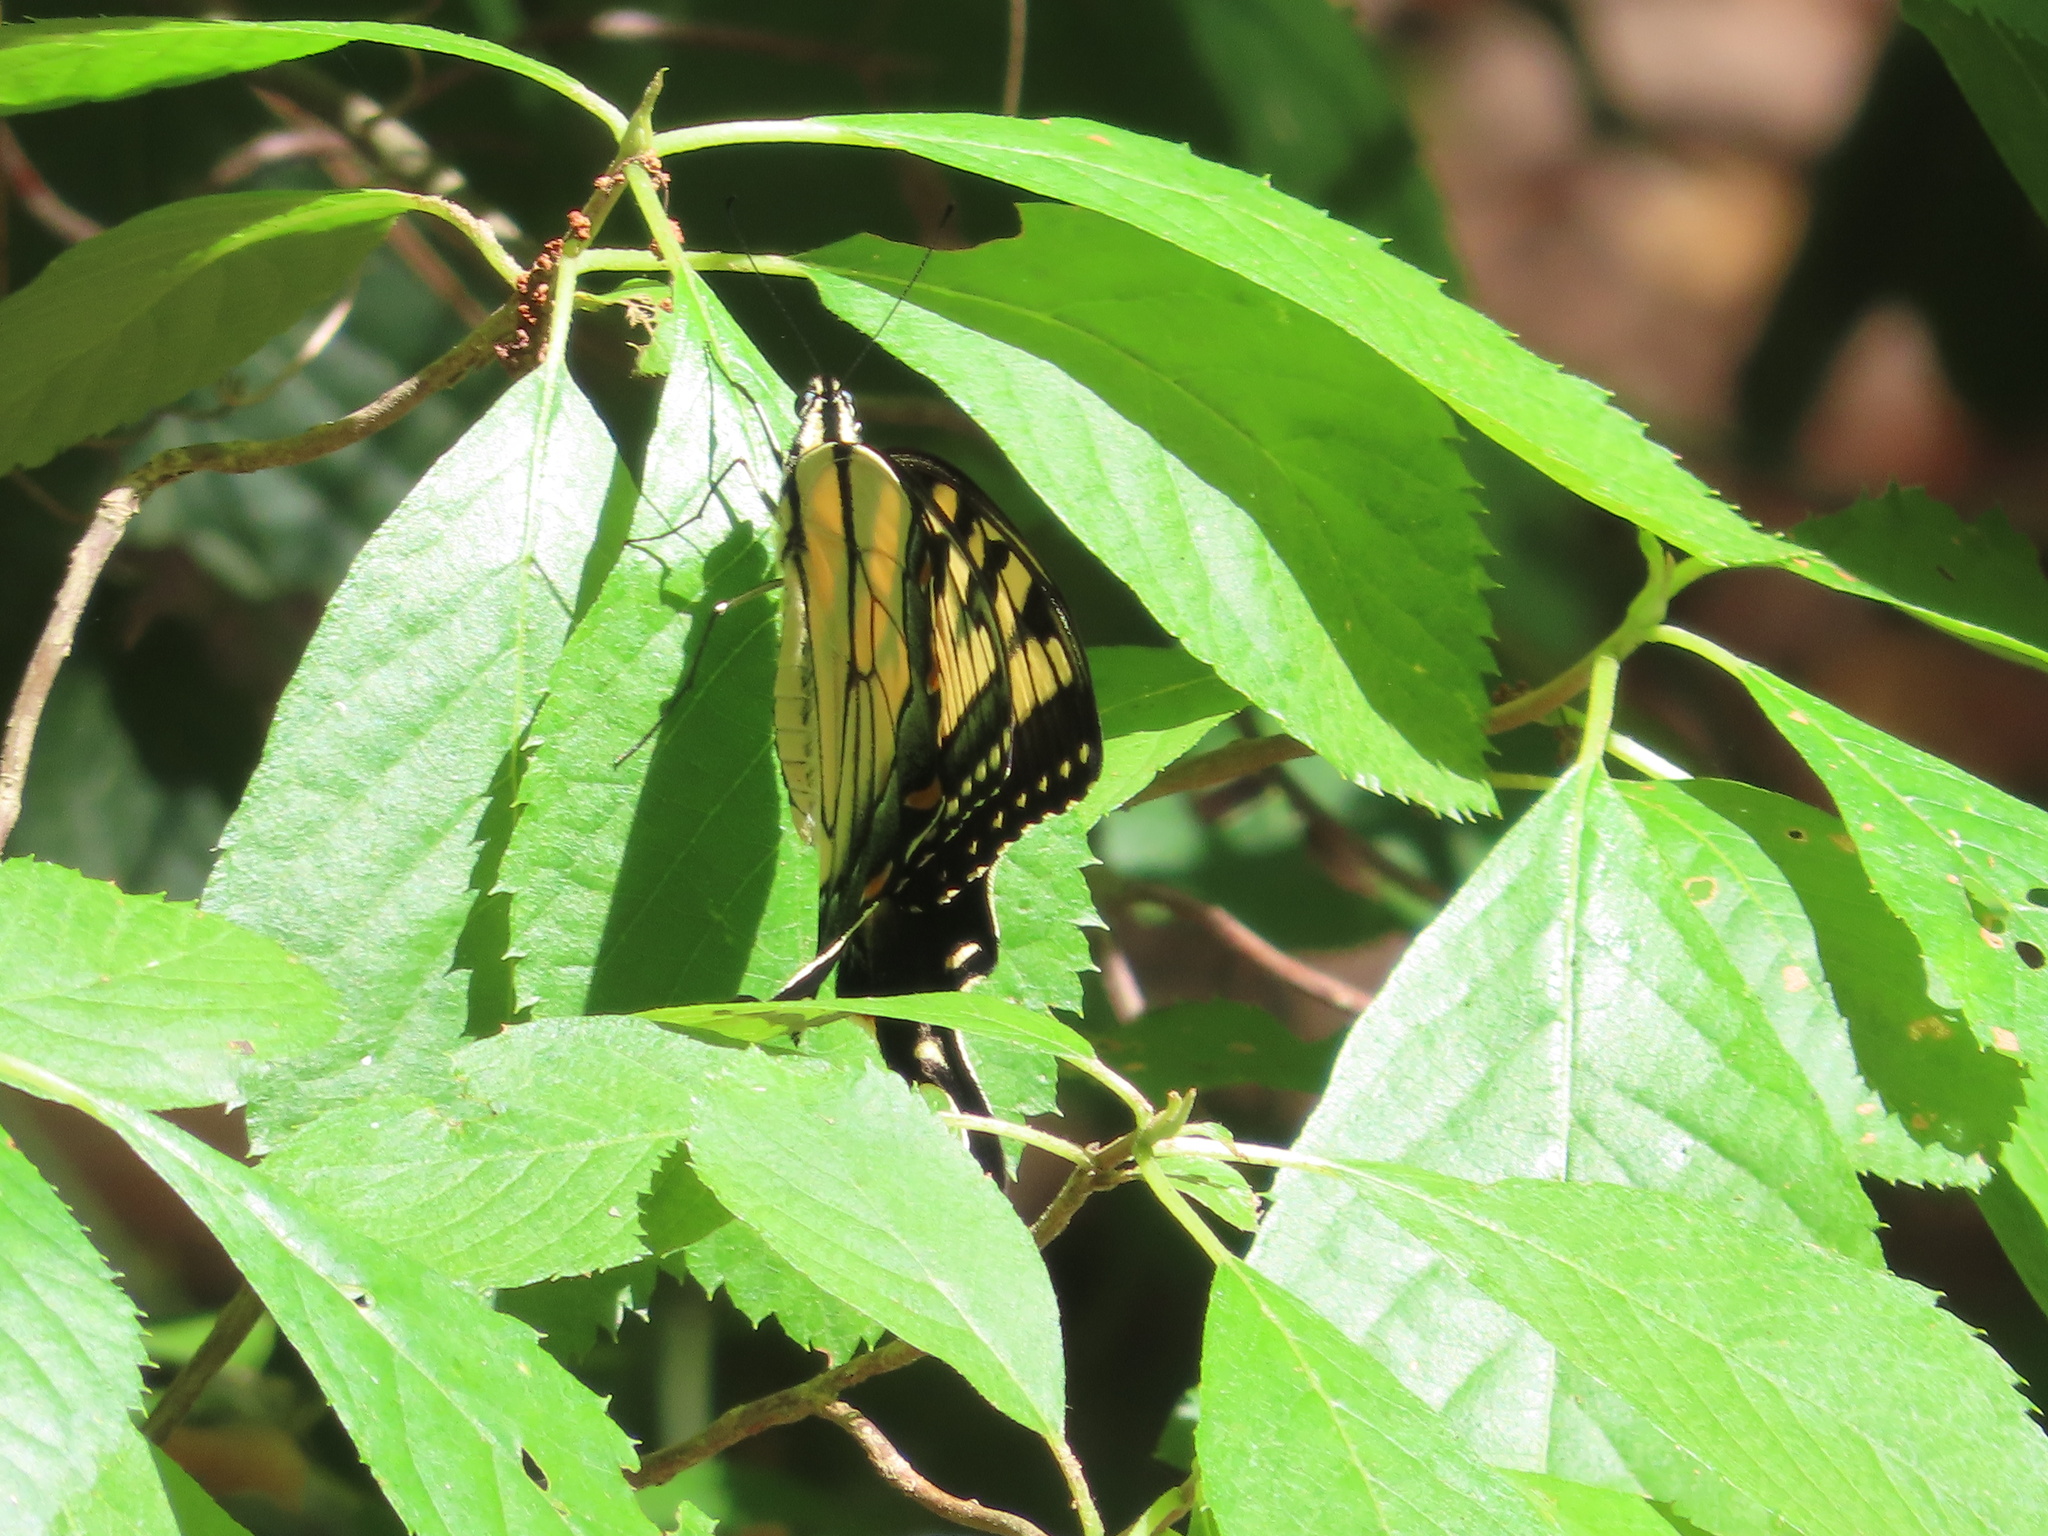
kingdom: Animalia
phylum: Arthropoda
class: Insecta
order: Lepidoptera
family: Papilionidae
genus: Papilio
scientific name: Papilio glaucus
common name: Tiger swallowtail
